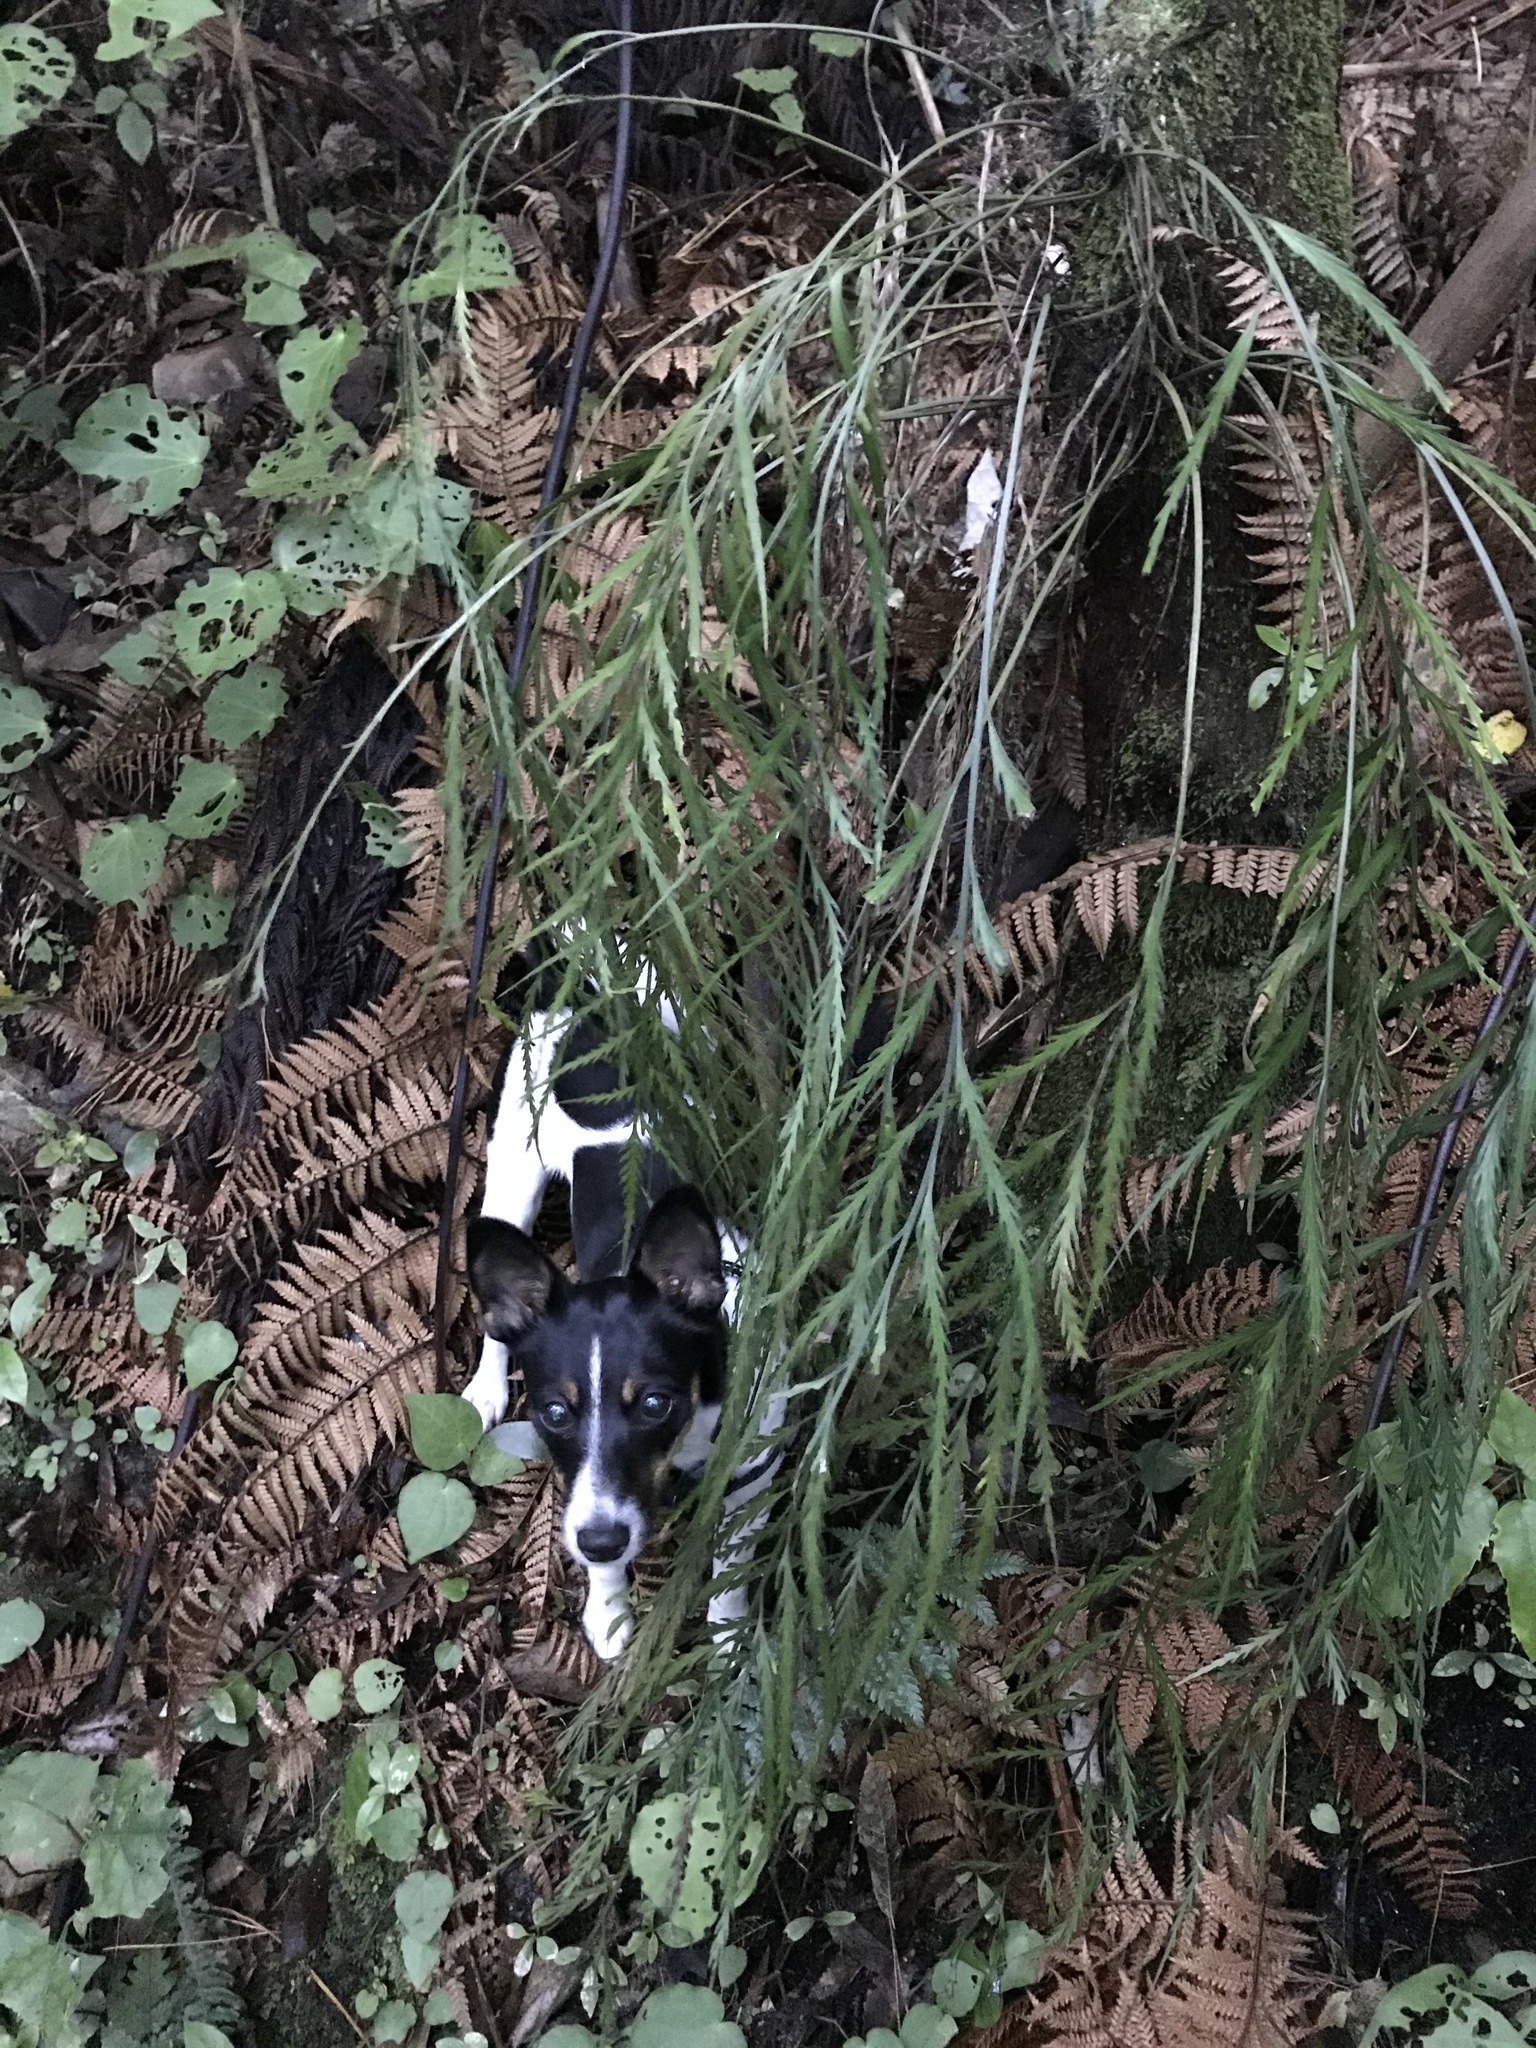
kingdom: Plantae
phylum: Tracheophyta
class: Polypodiopsida
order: Polypodiales
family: Aspleniaceae
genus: Asplenium
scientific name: Asplenium flaccidum
